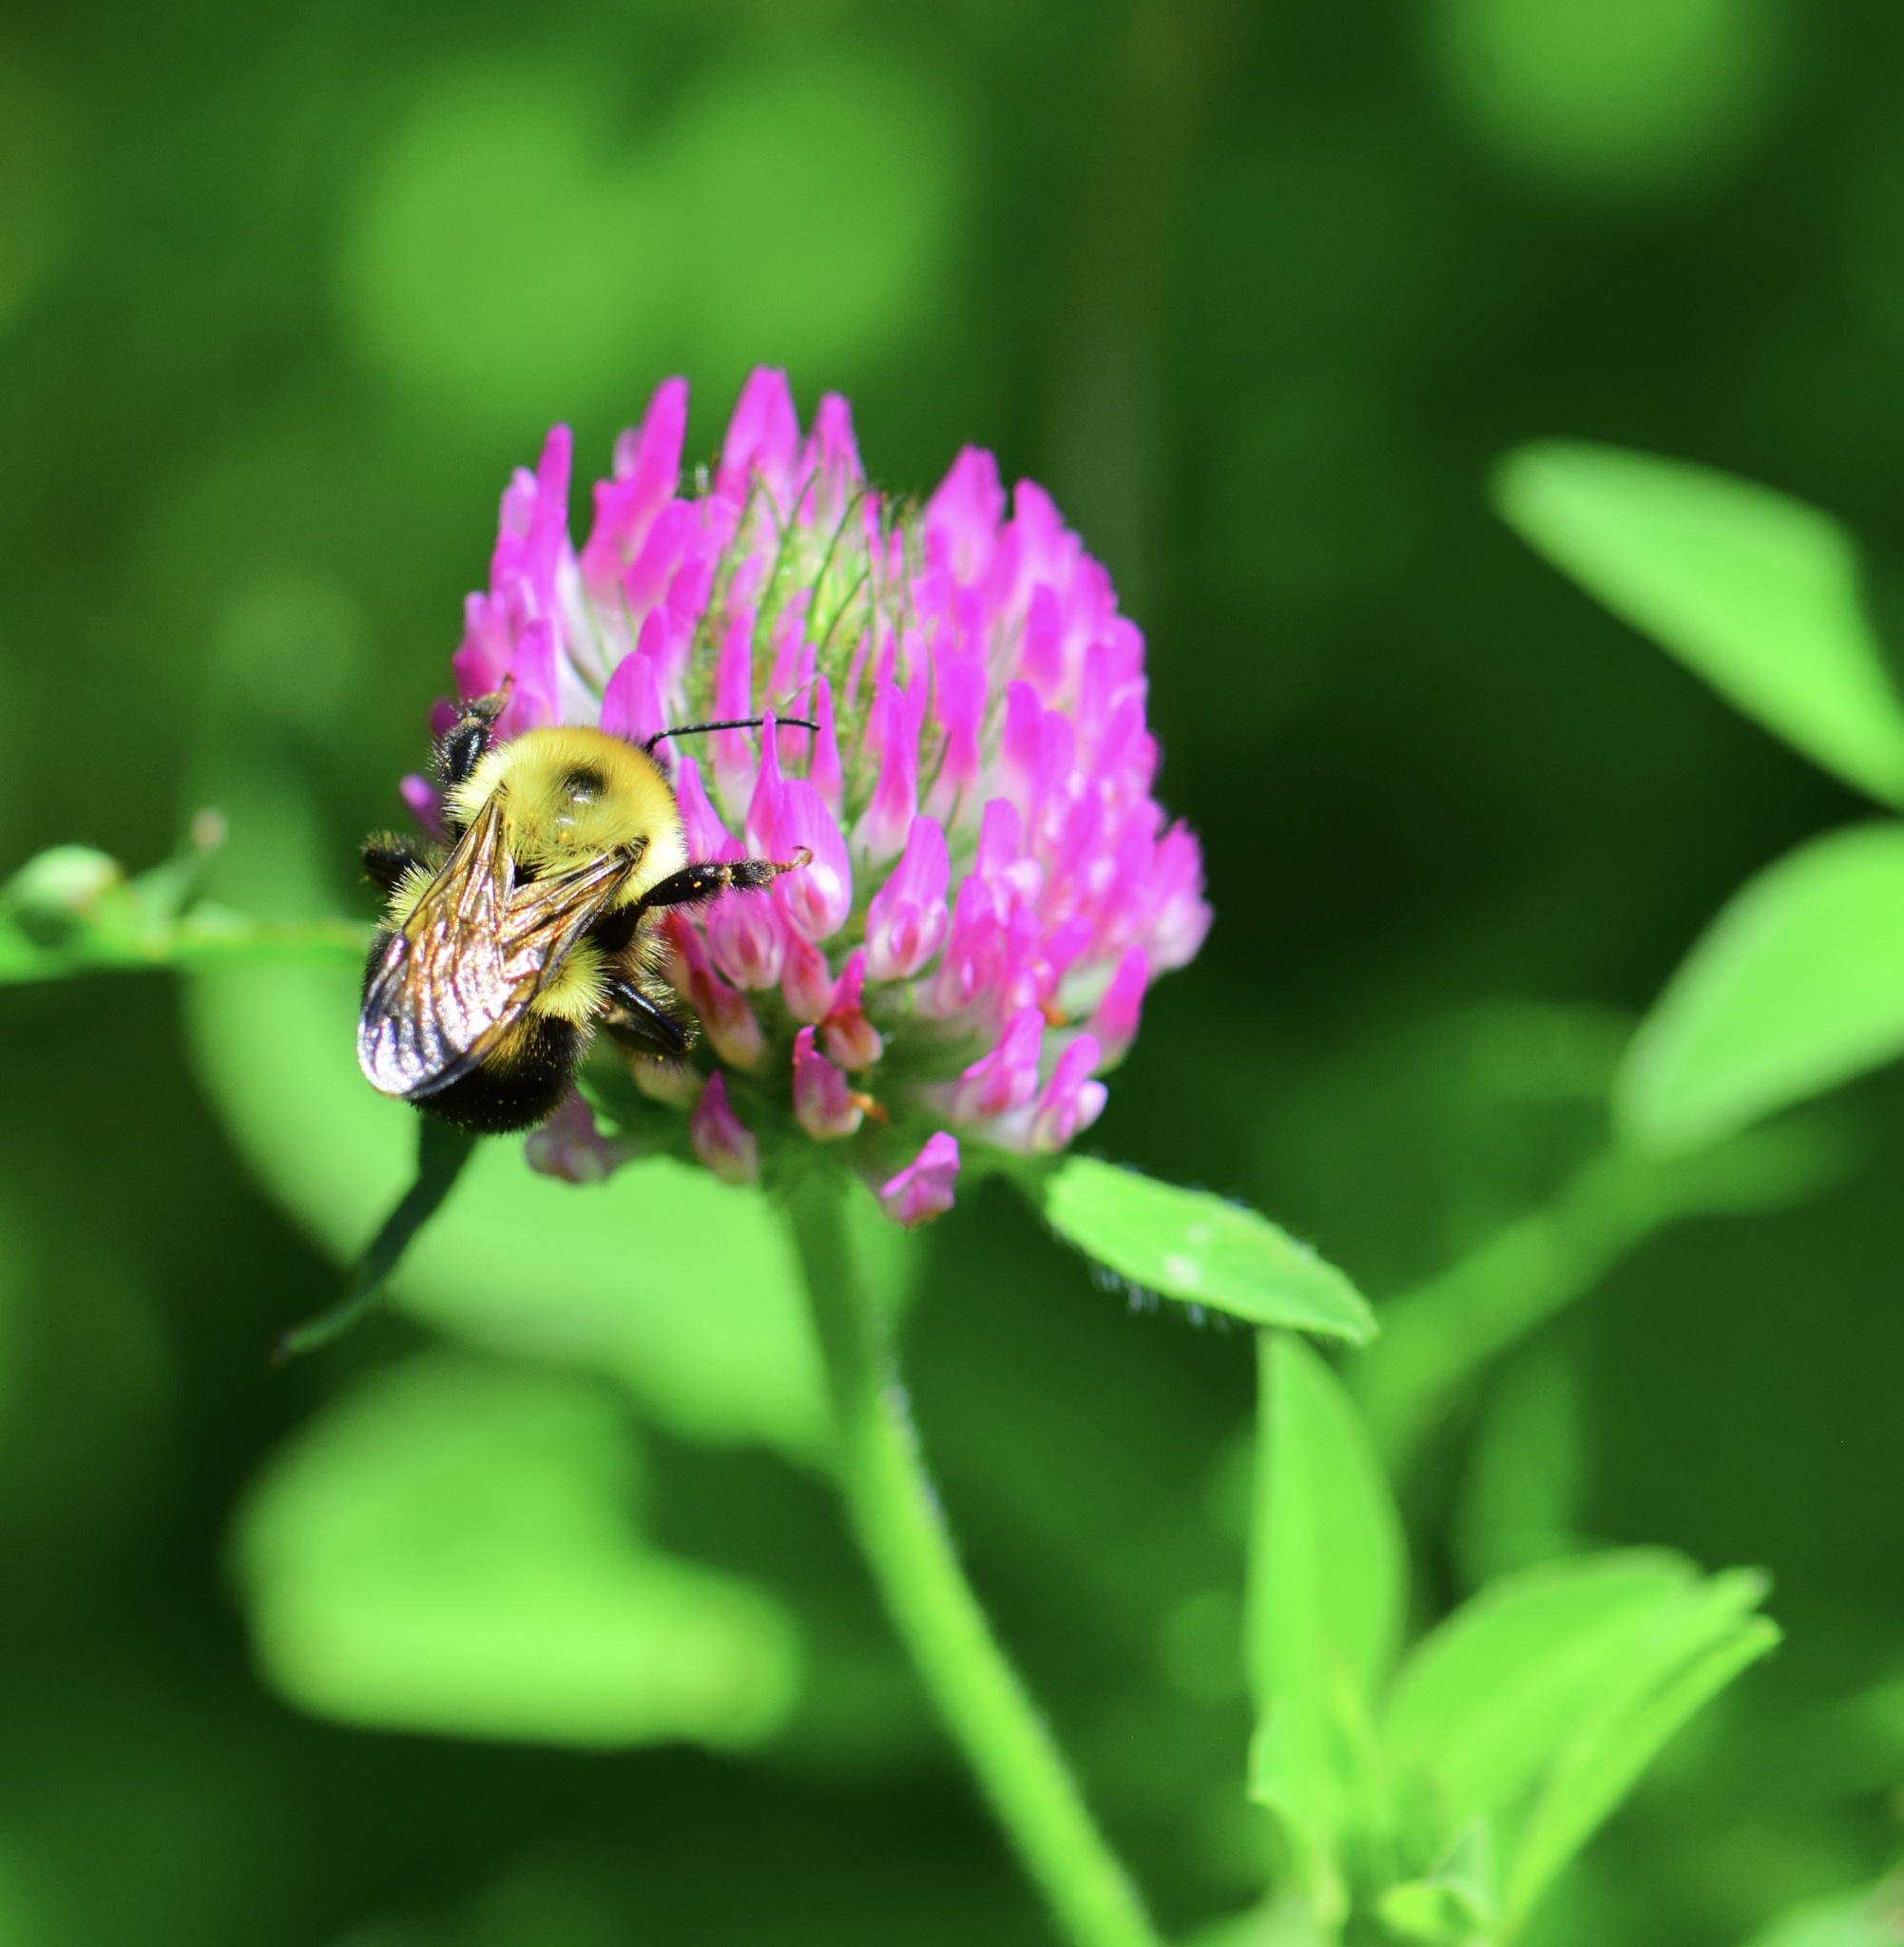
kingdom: Animalia
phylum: Arthropoda
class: Insecta
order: Hymenoptera
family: Apidae
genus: Bombus
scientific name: Bombus bimaculatus
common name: Two-spotted bumble bee
